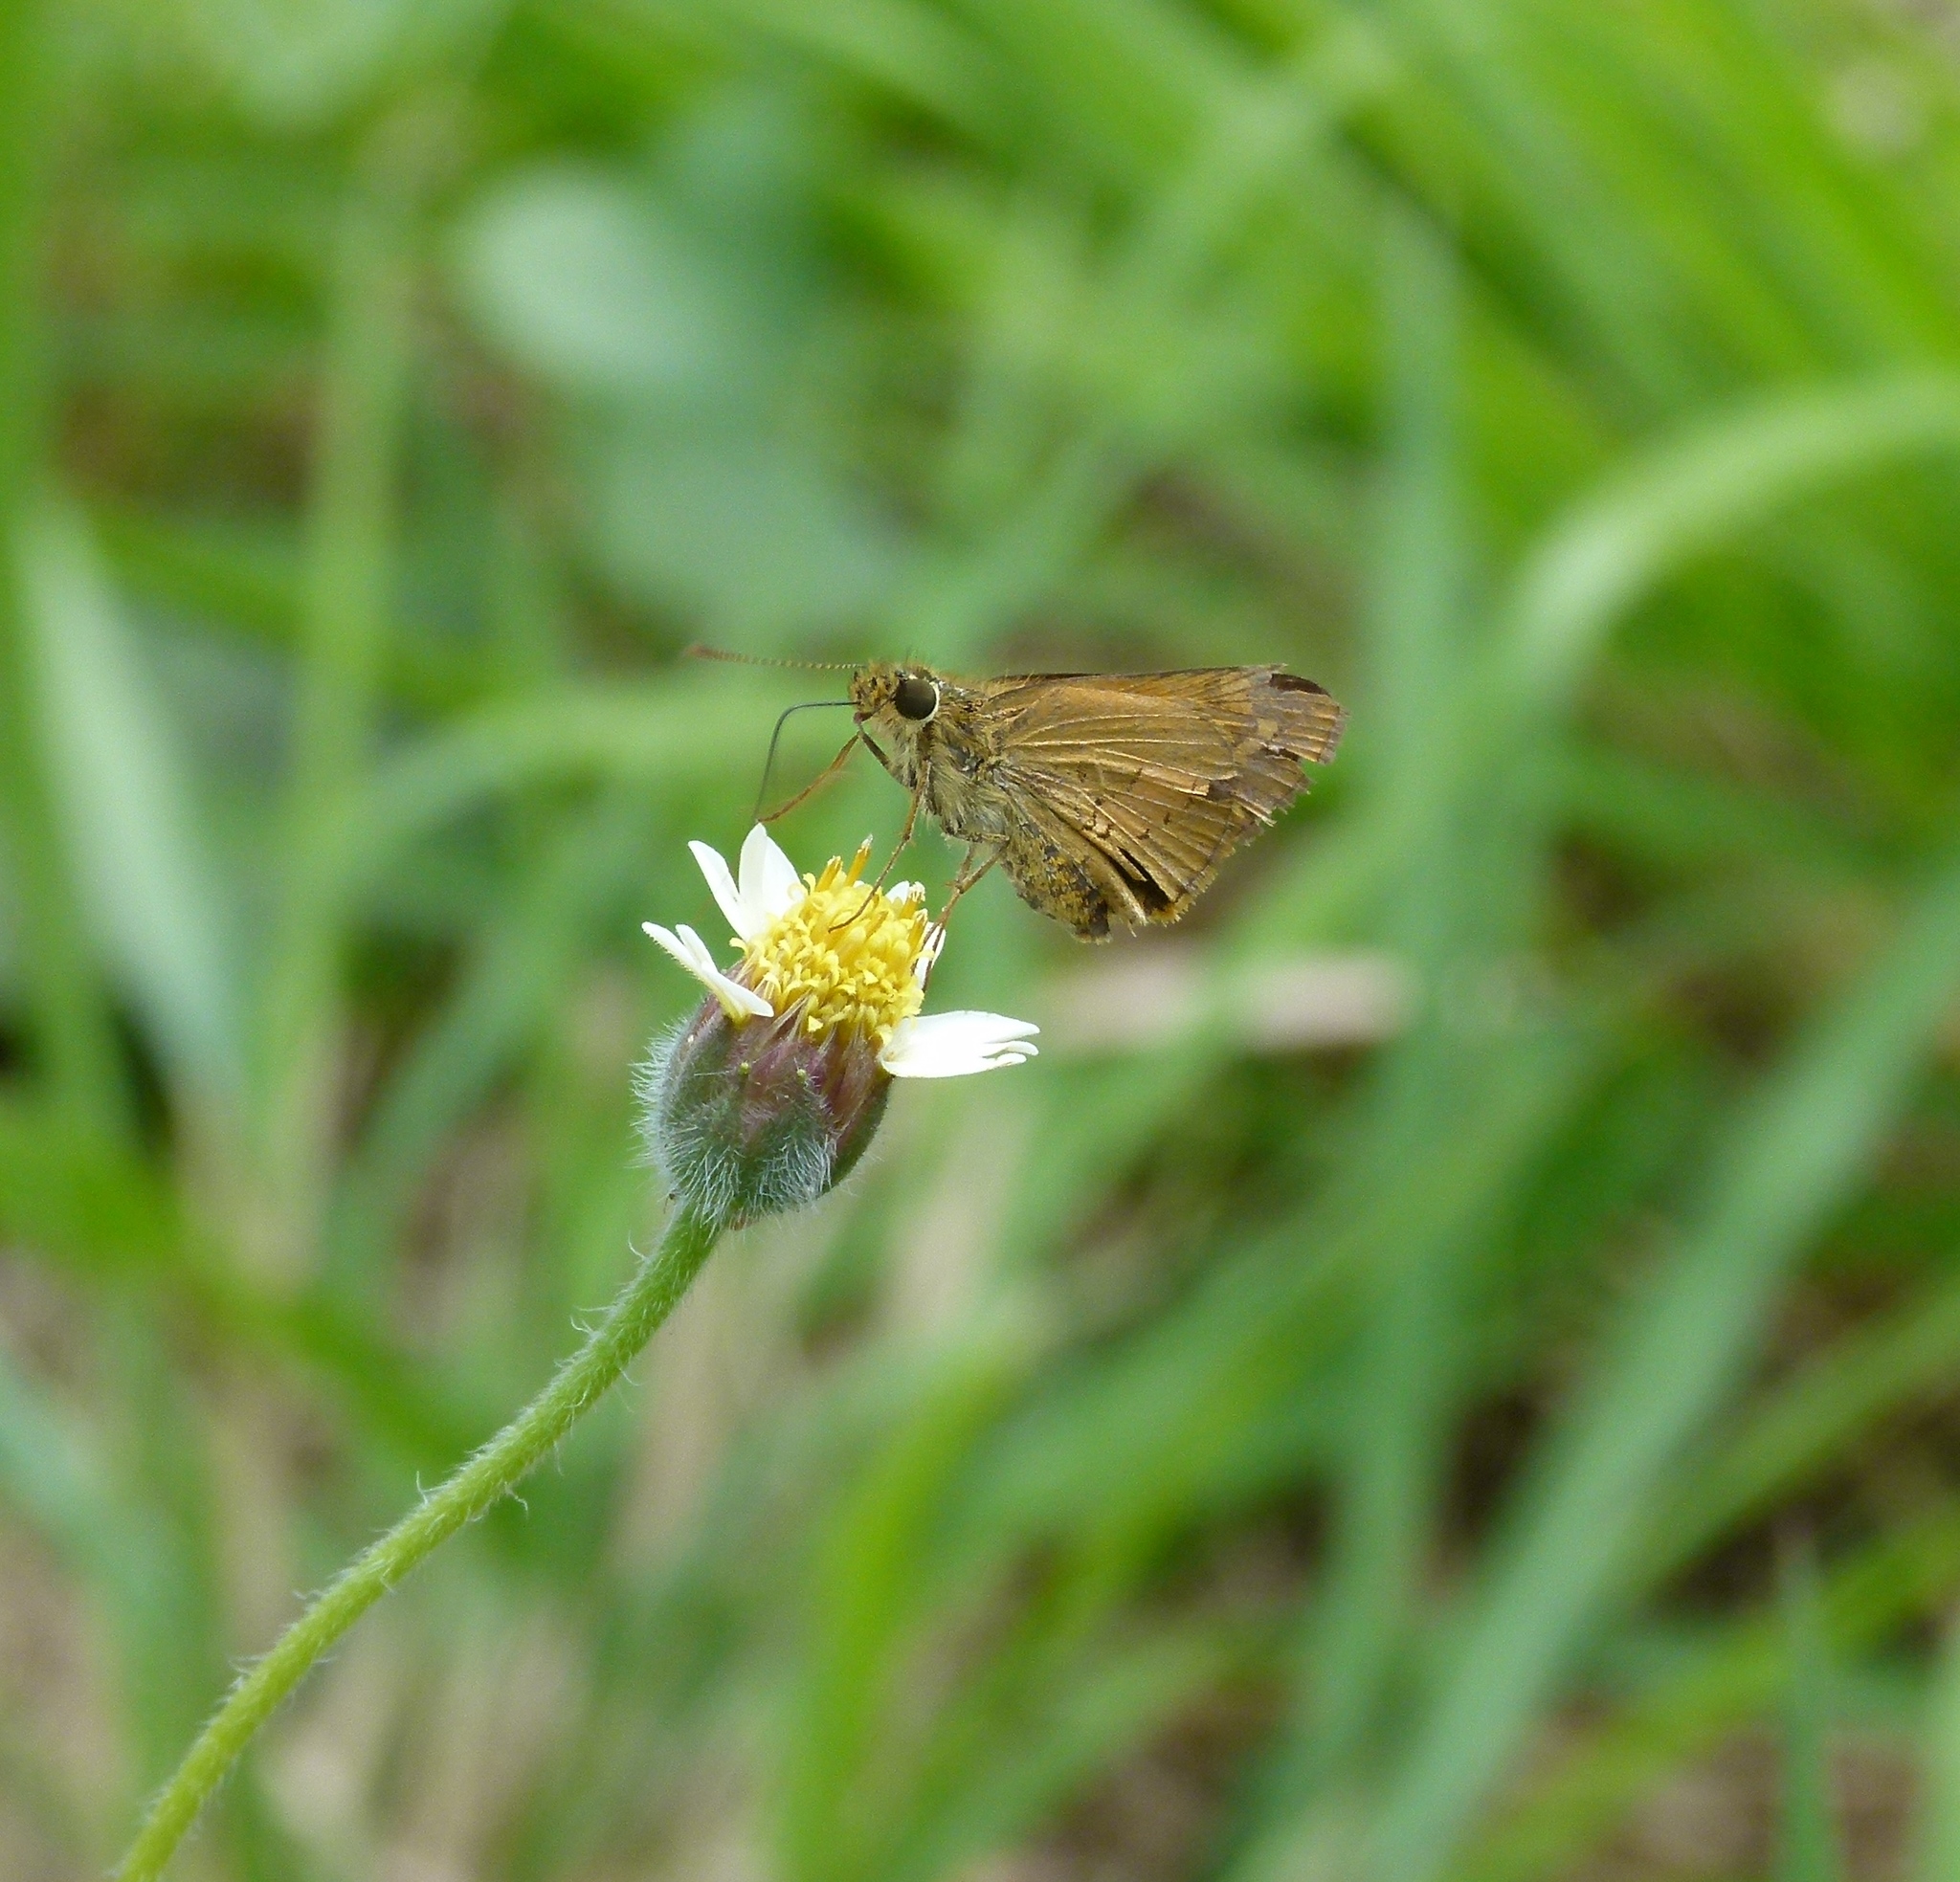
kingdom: Animalia
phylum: Arthropoda
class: Insecta
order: Lepidoptera
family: Hesperiidae
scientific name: Hesperiidae
